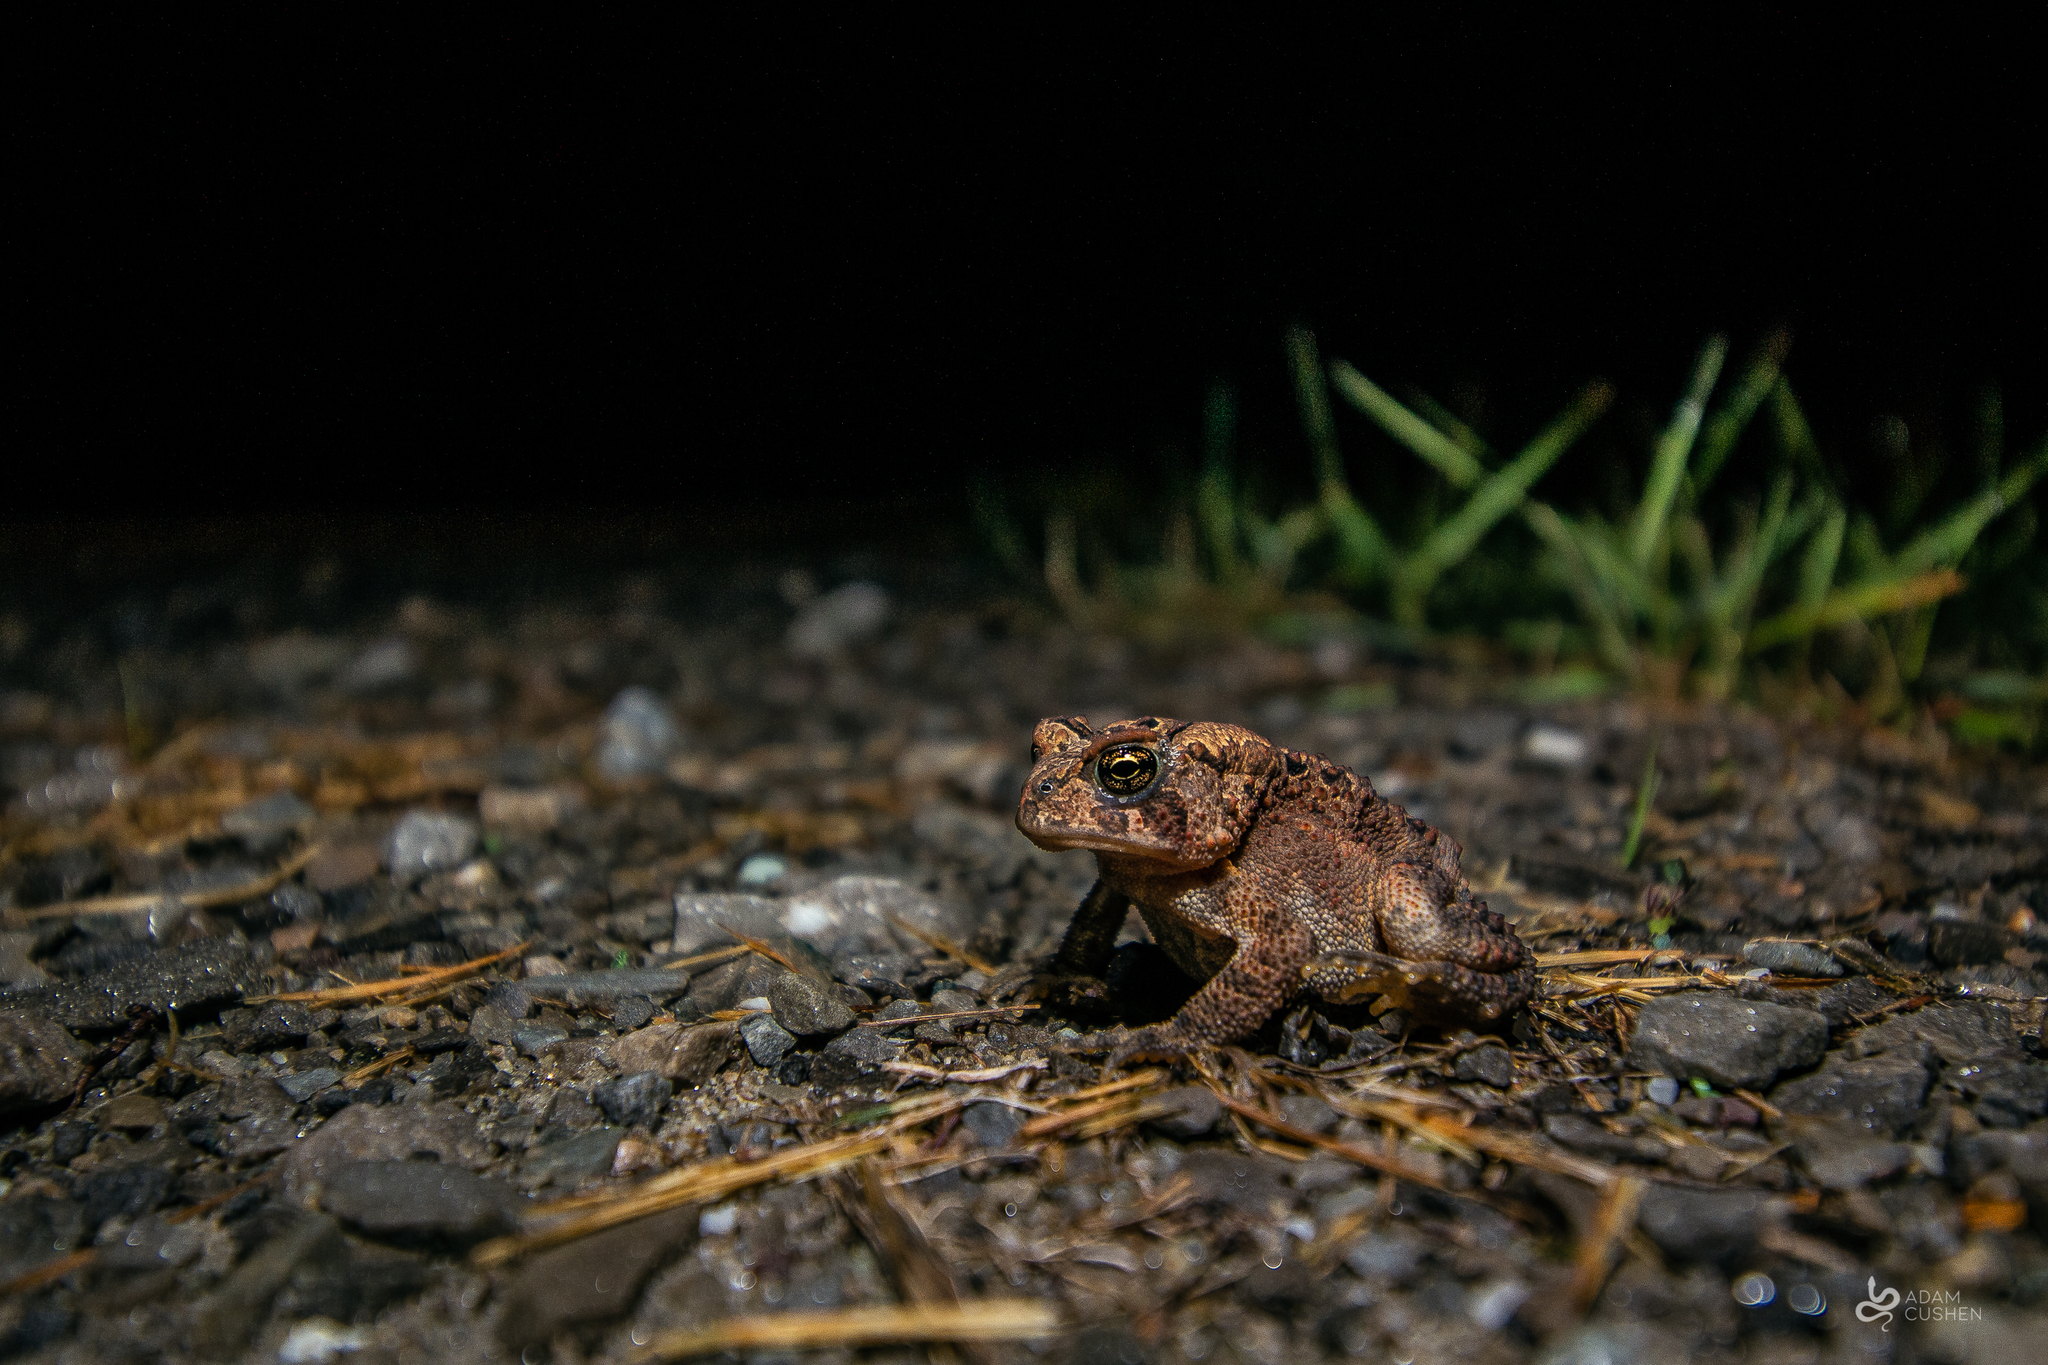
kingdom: Animalia
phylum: Chordata
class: Amphibia
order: Anura
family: Bufonidae
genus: Anaxyrus
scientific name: Anaxyrus americanus
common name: American toad
